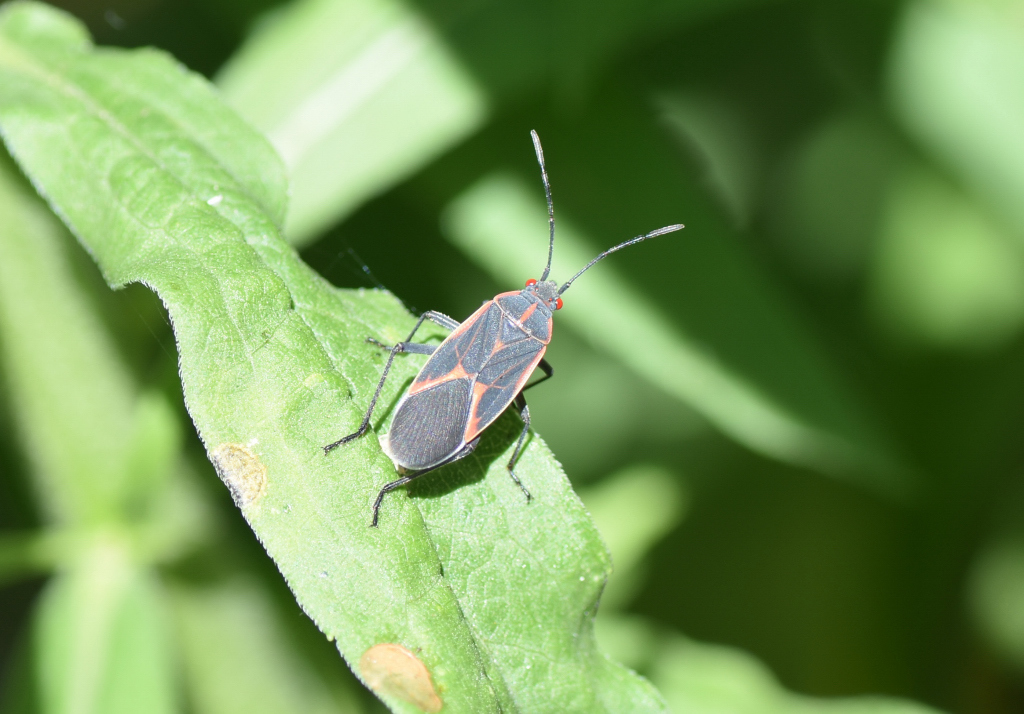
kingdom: Animalia
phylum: Arthropoda
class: Insecta
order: Hemiptera
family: Rhopalidae
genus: Boisea
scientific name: Boisea trivittata
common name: Boxelder bug
